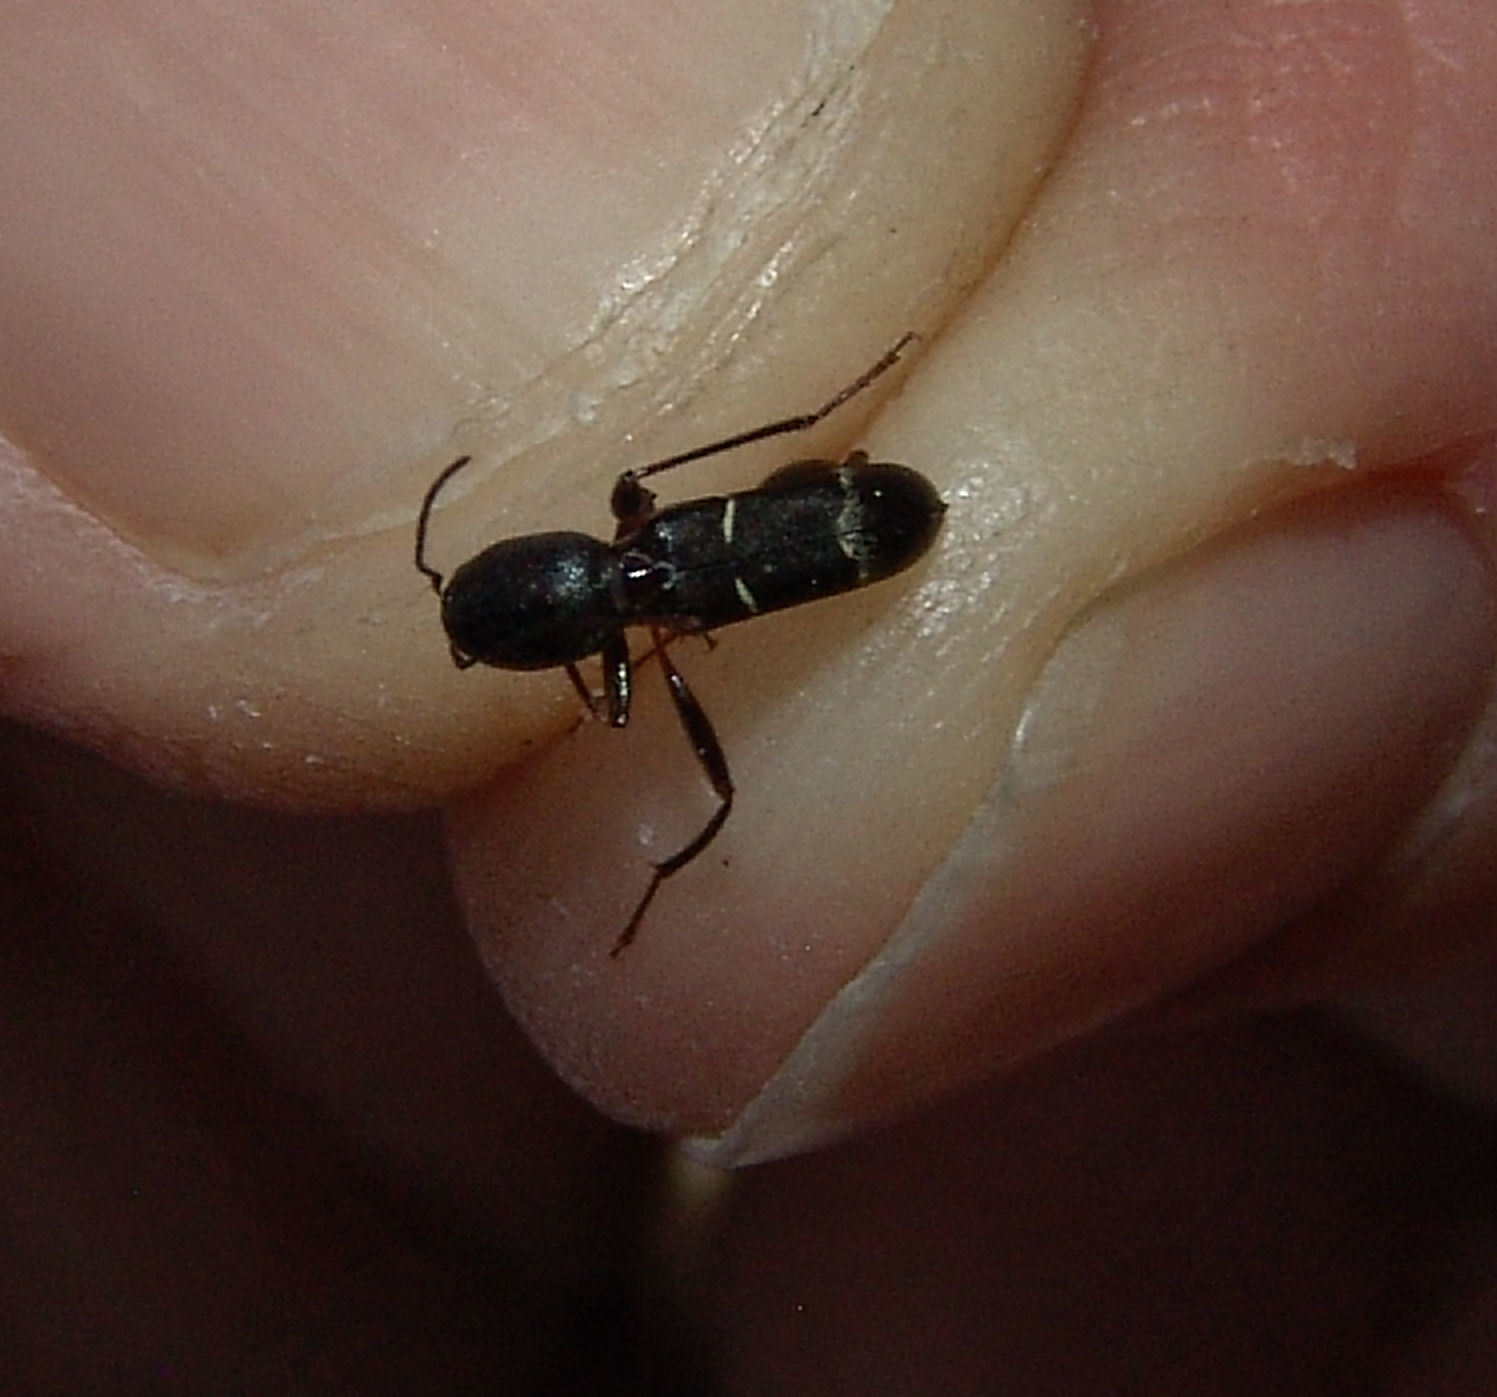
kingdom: Animalia
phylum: Arthropoda
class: Insecta
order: Coleoptera
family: Cerambycidae
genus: Neoclytus
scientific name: Neoclytus jouteli
